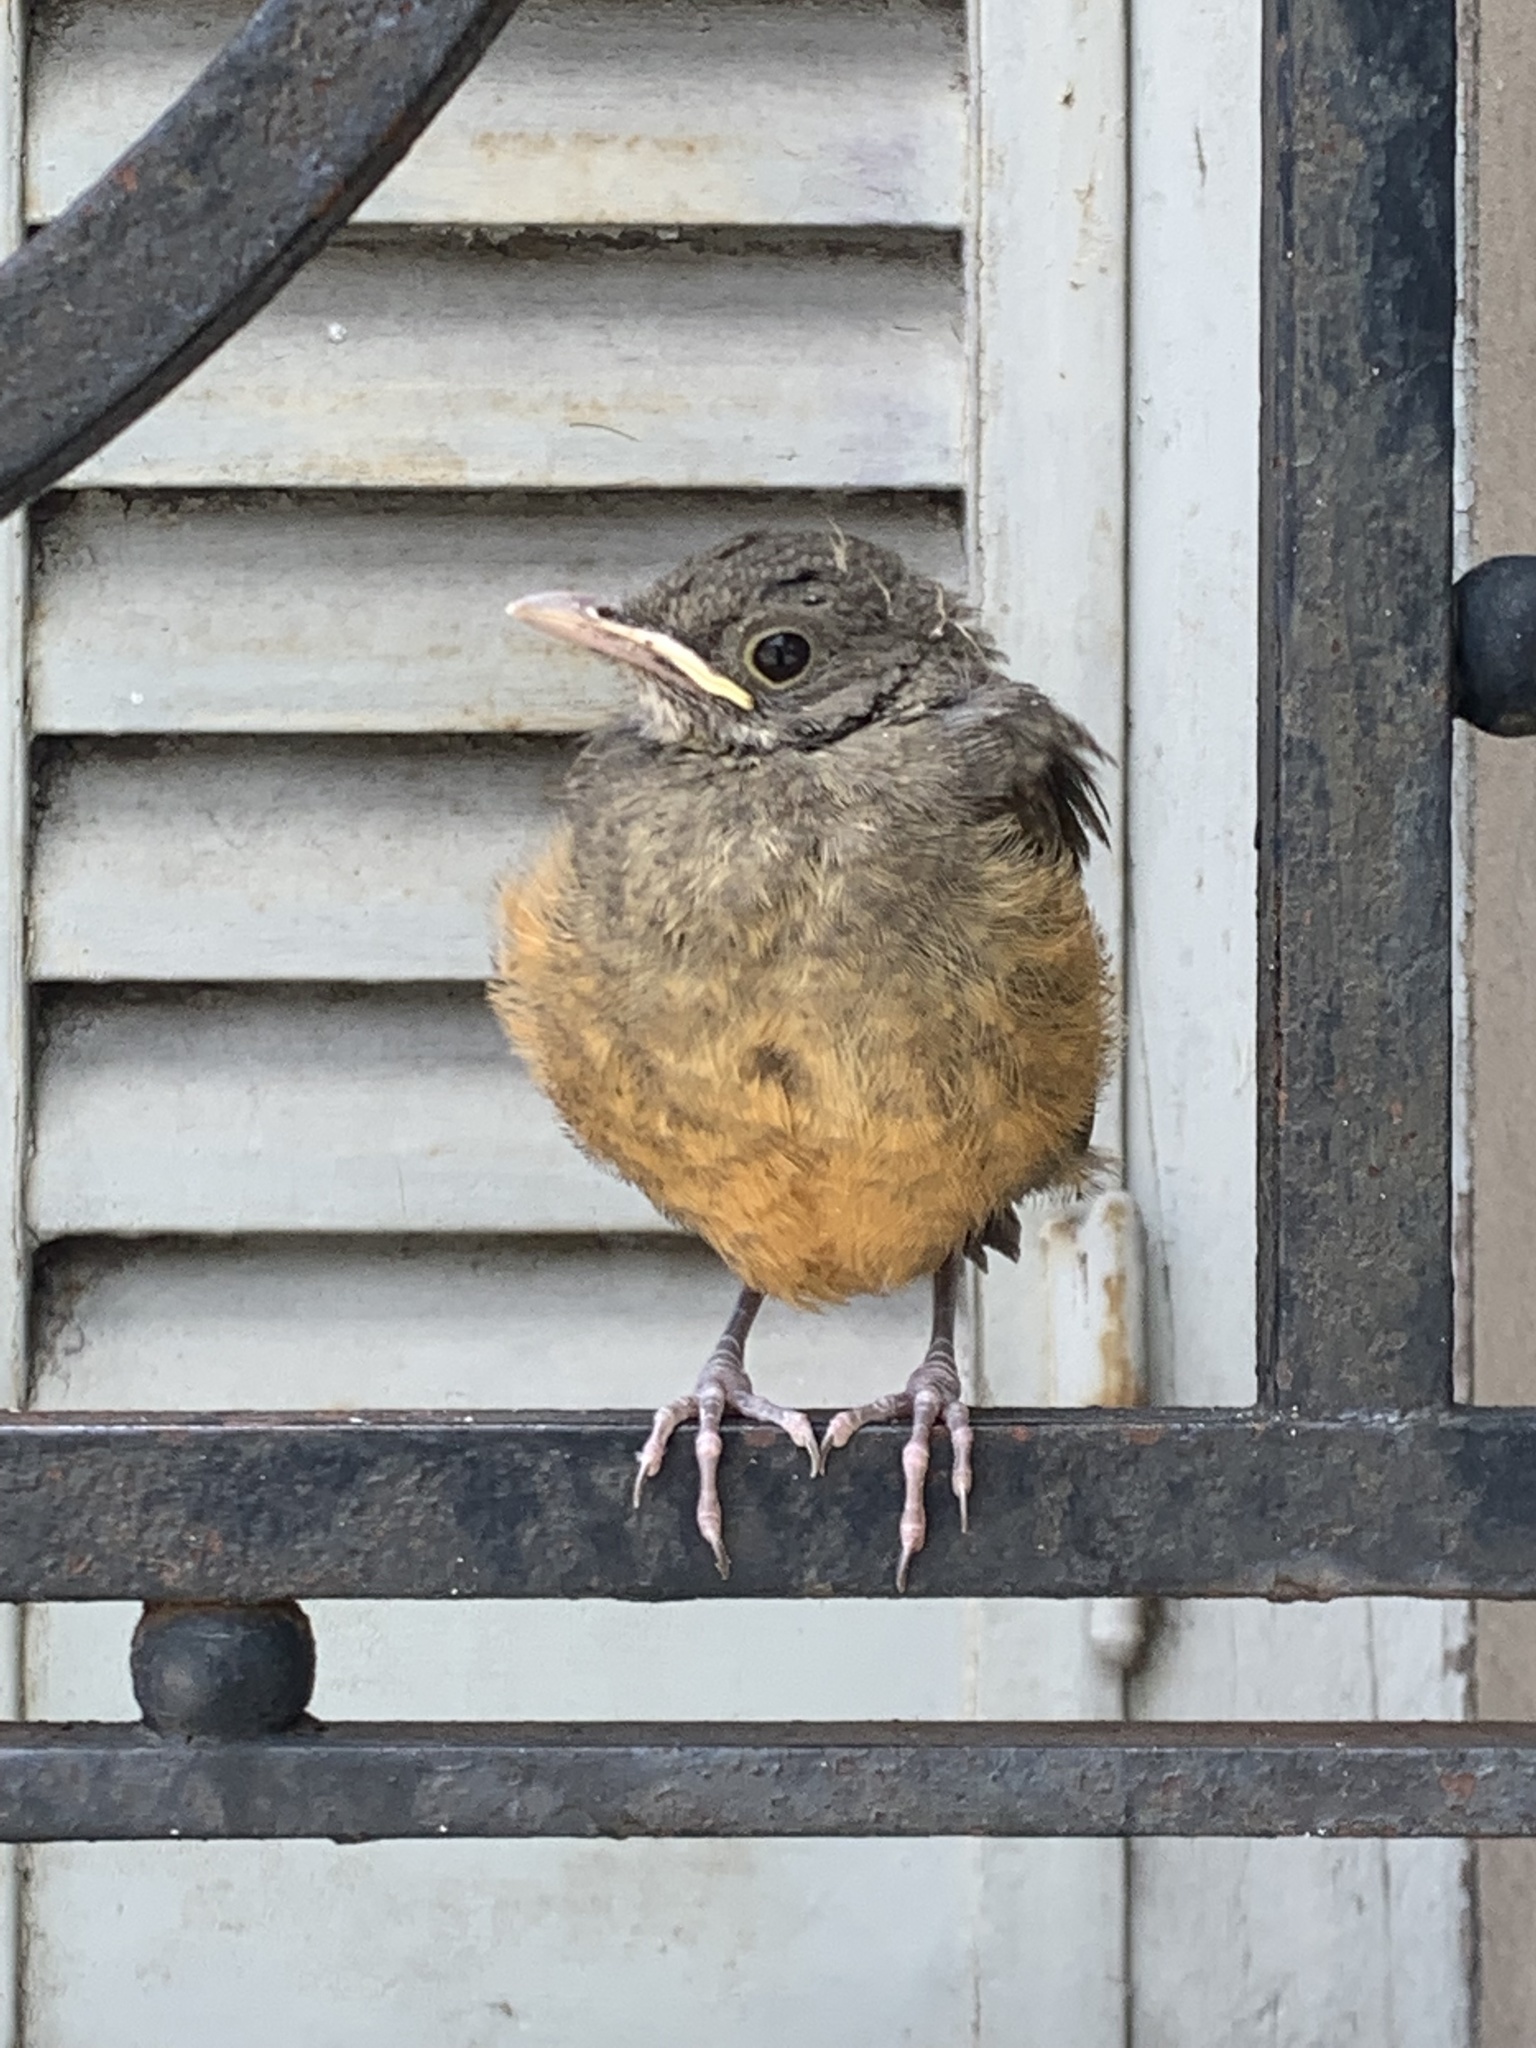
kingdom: Animalia
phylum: Chordata
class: Aves
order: Passeriformes
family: Turdidae
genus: Turdus
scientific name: Turdus rufiventris
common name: Rufous-bellied thrush
